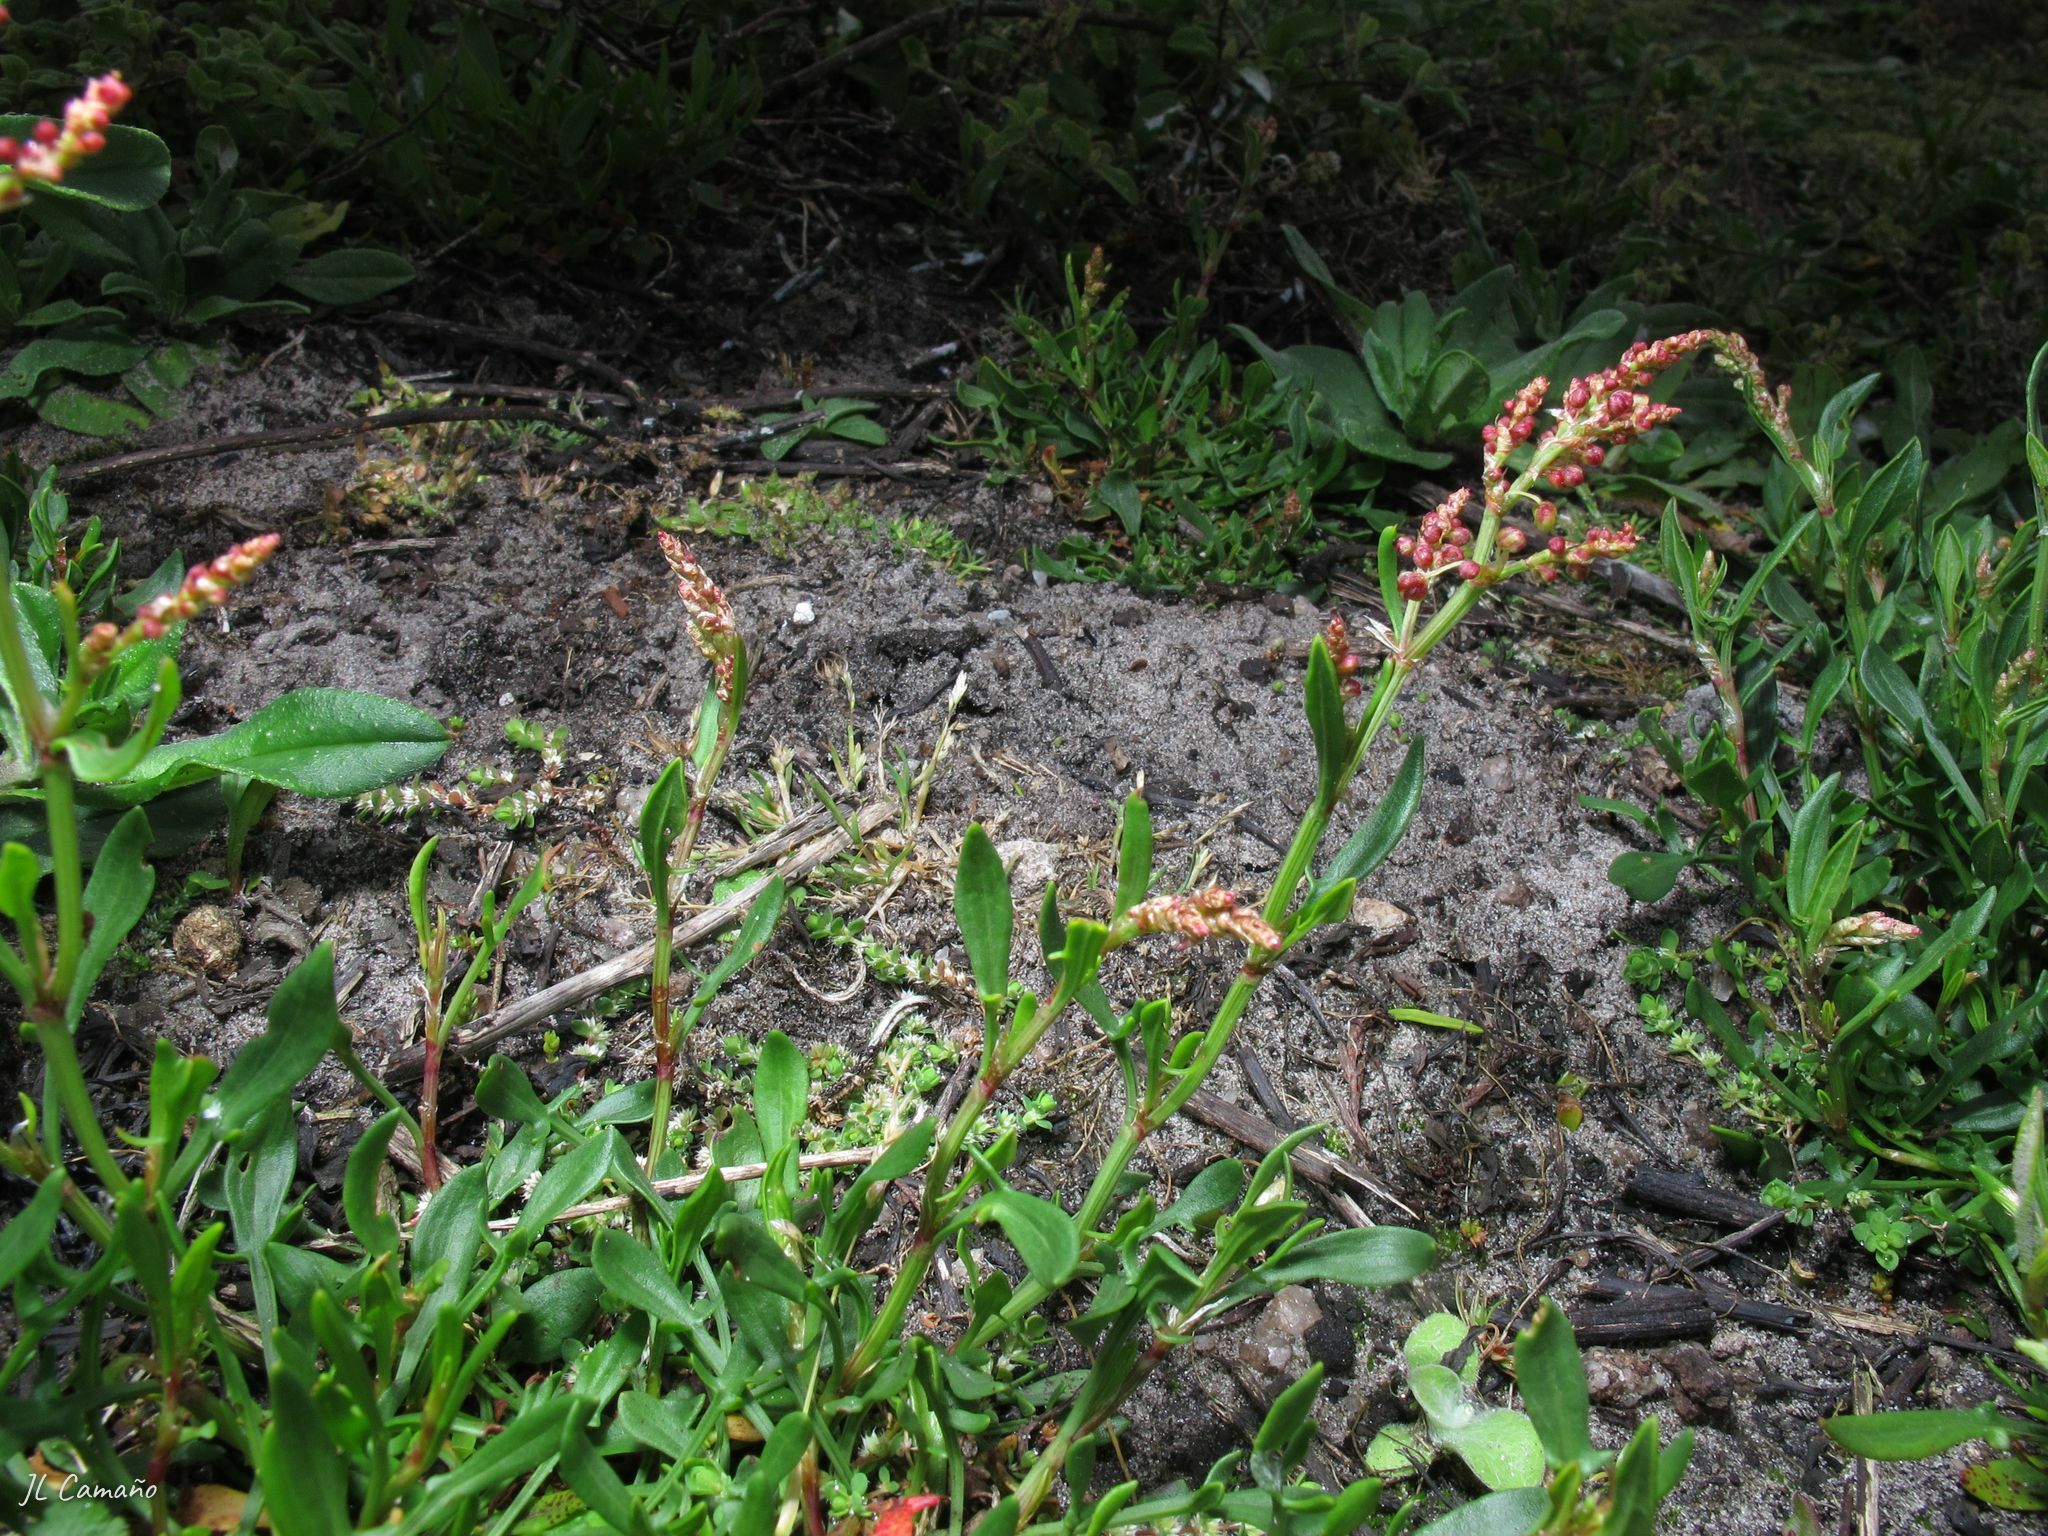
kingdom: Plantae
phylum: Tracheophyta
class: Magnoliopsida
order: Caryophyllales
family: Polygonaceae
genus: Rumex
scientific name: Rumex acetosella
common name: Common sheep sorrel
